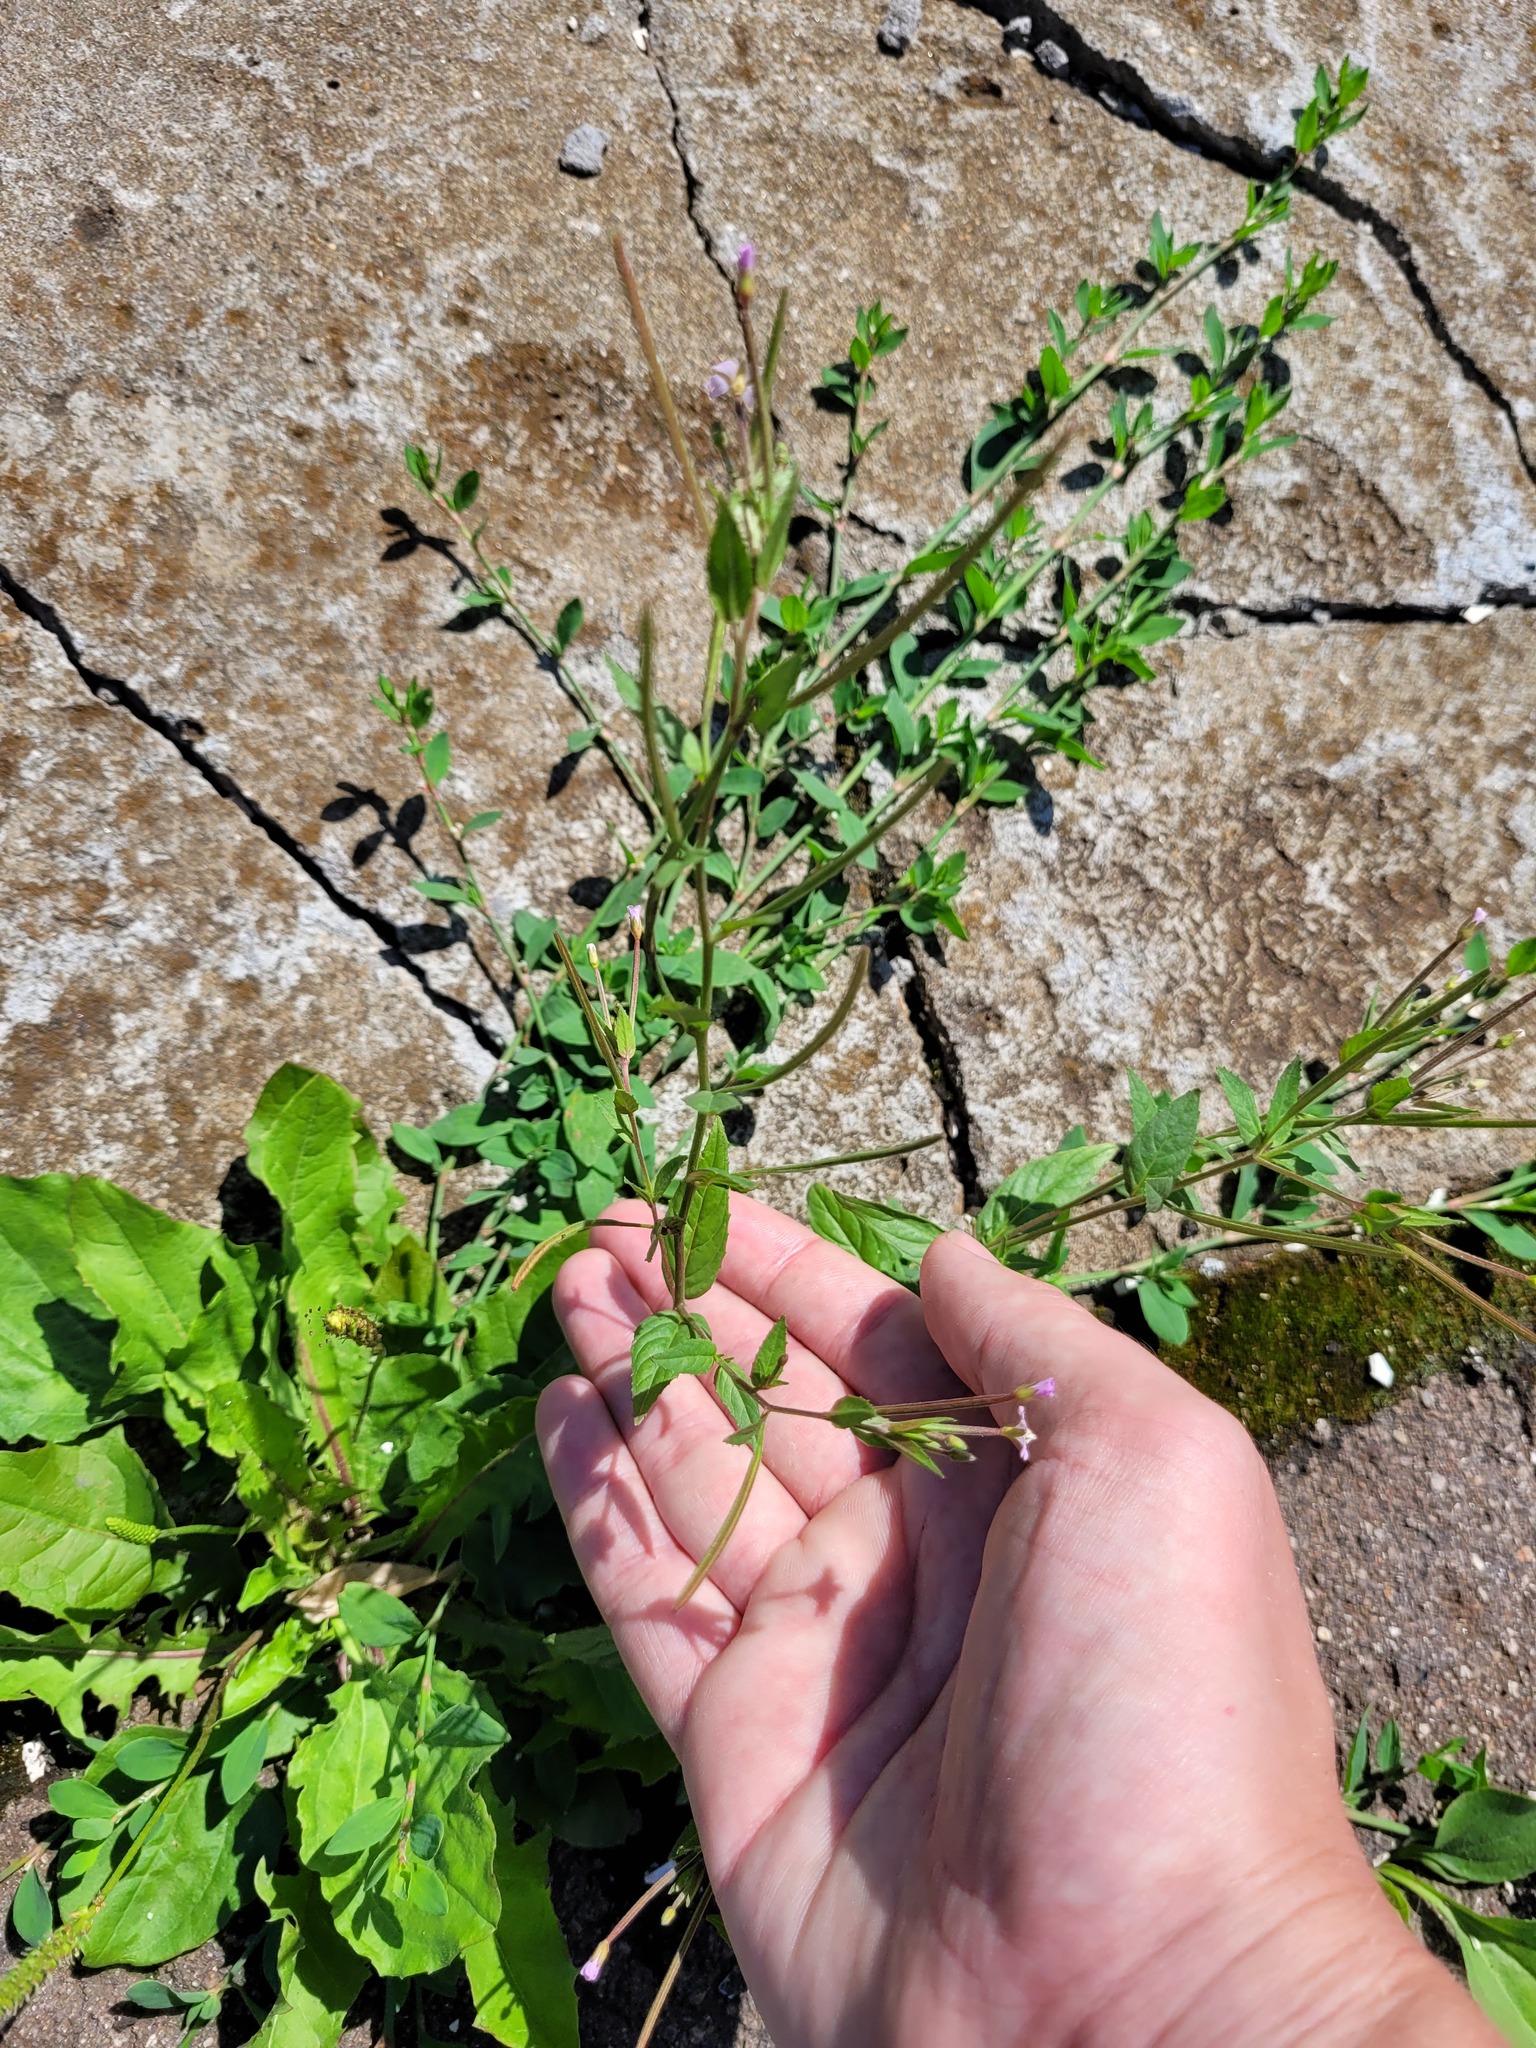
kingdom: Plantae
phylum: Tracheophyta
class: Magnoliopsida
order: Myrtales
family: Onagraceae
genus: Epilobium
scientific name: Epilobium ciliatum
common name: American willowherb
